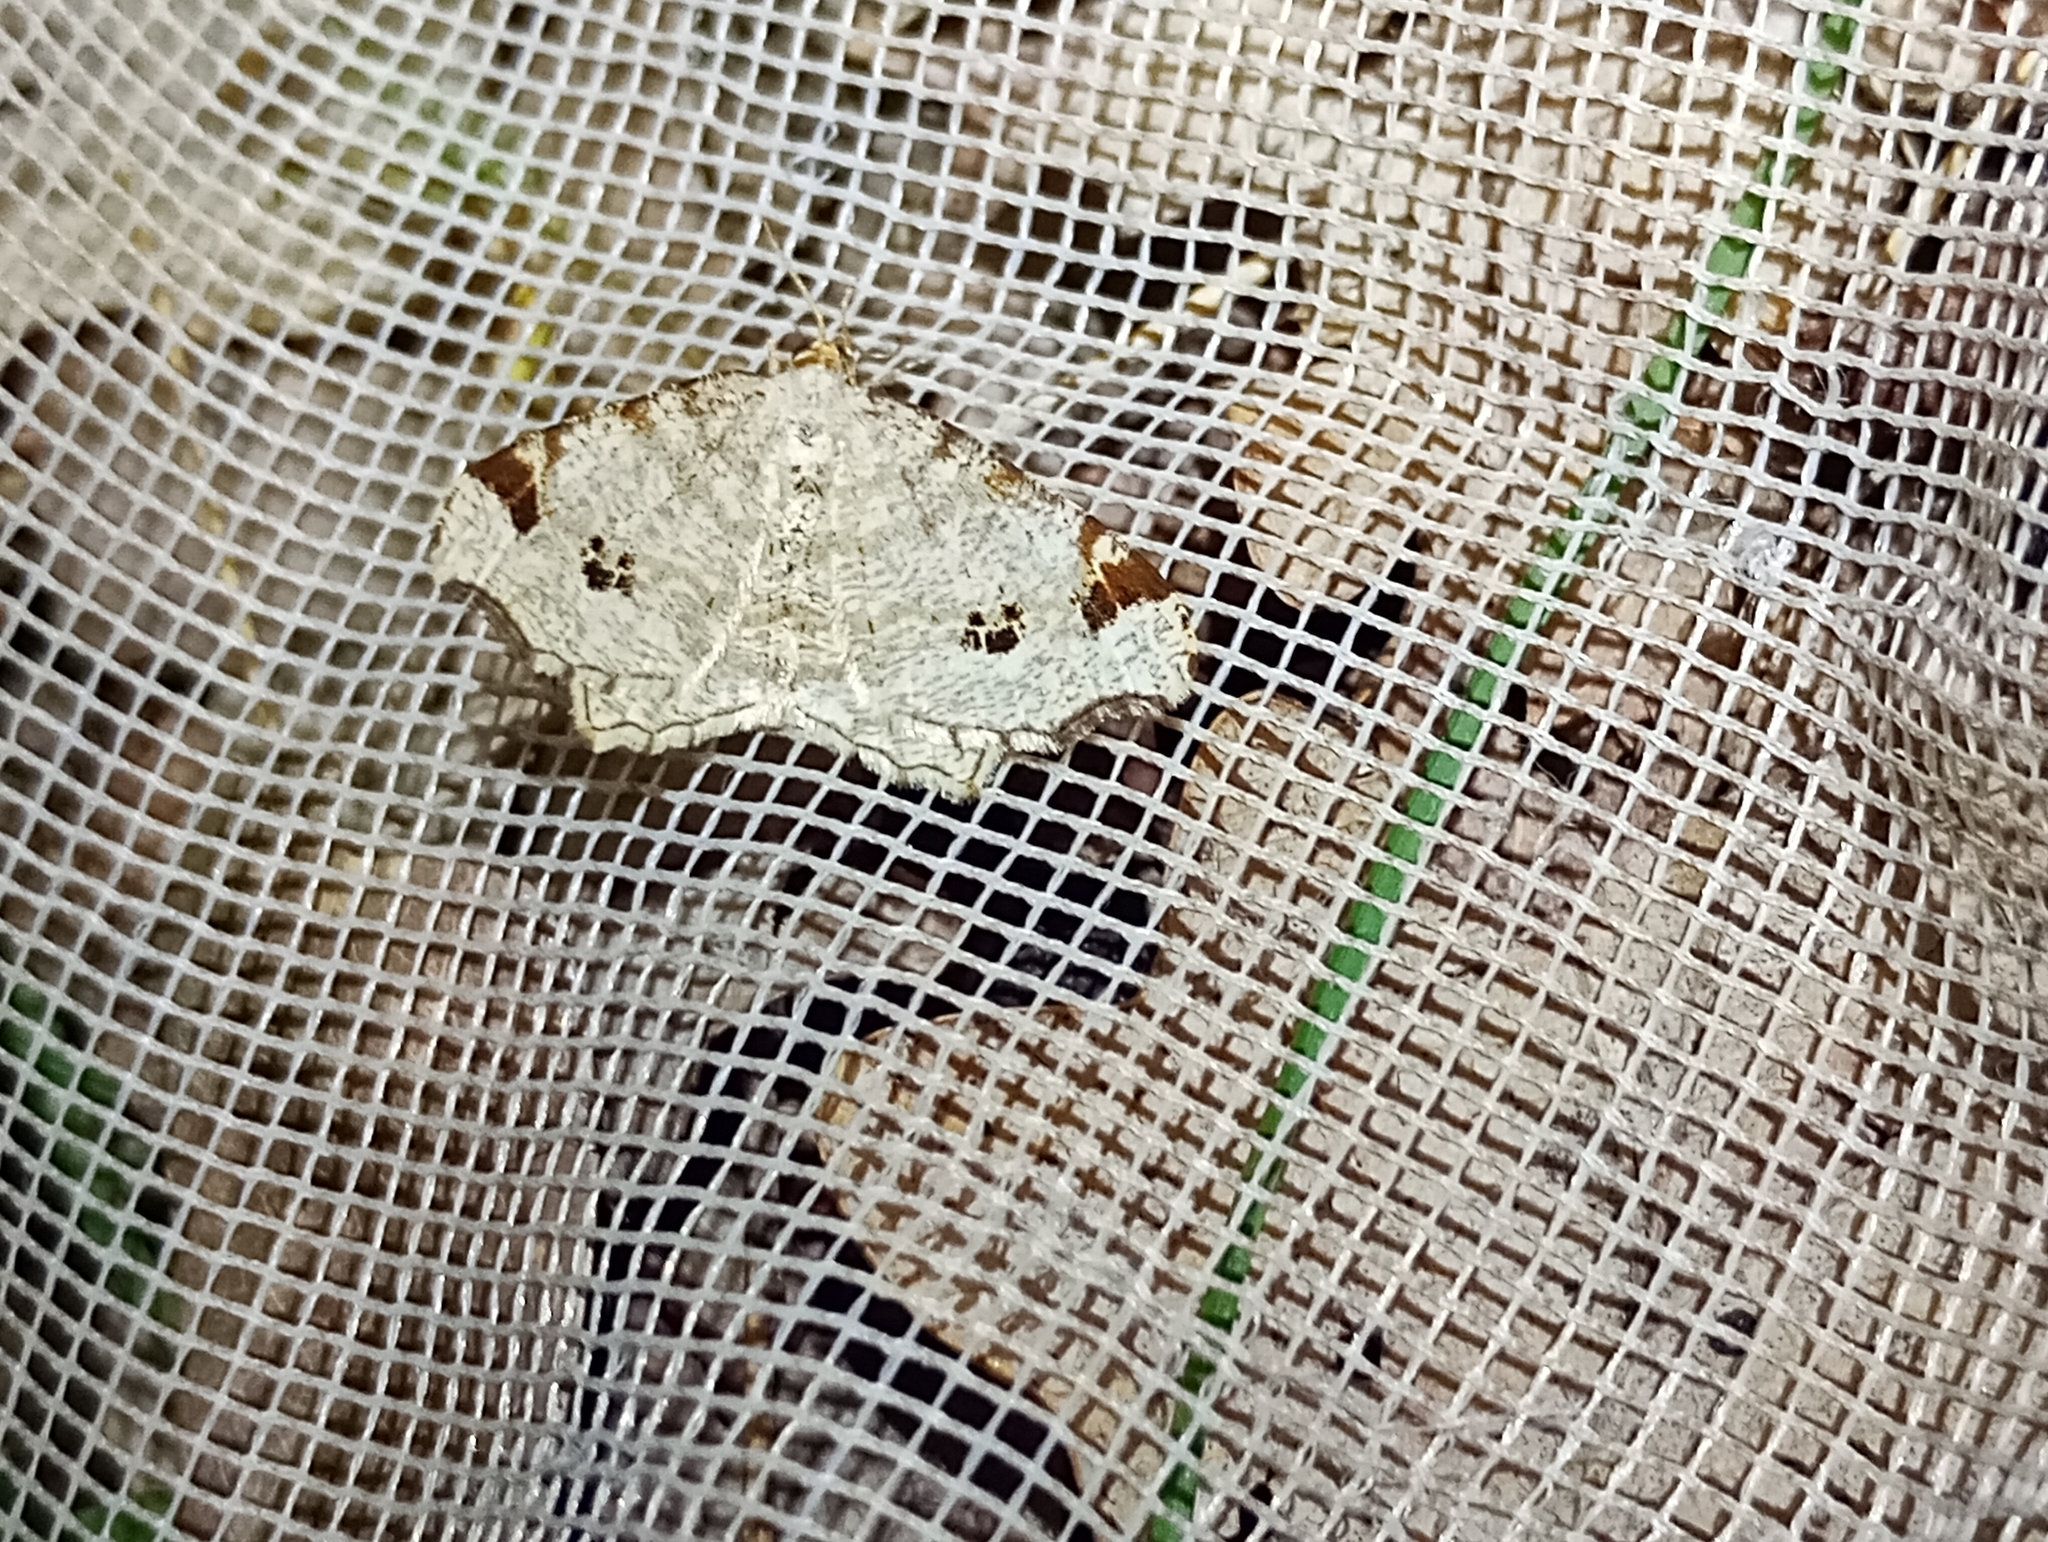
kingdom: Animalia
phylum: Arthropoda
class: Insecta
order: Lepidoptera
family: Geometridae
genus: Macaria
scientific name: Macaria notata
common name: Peacock moth
